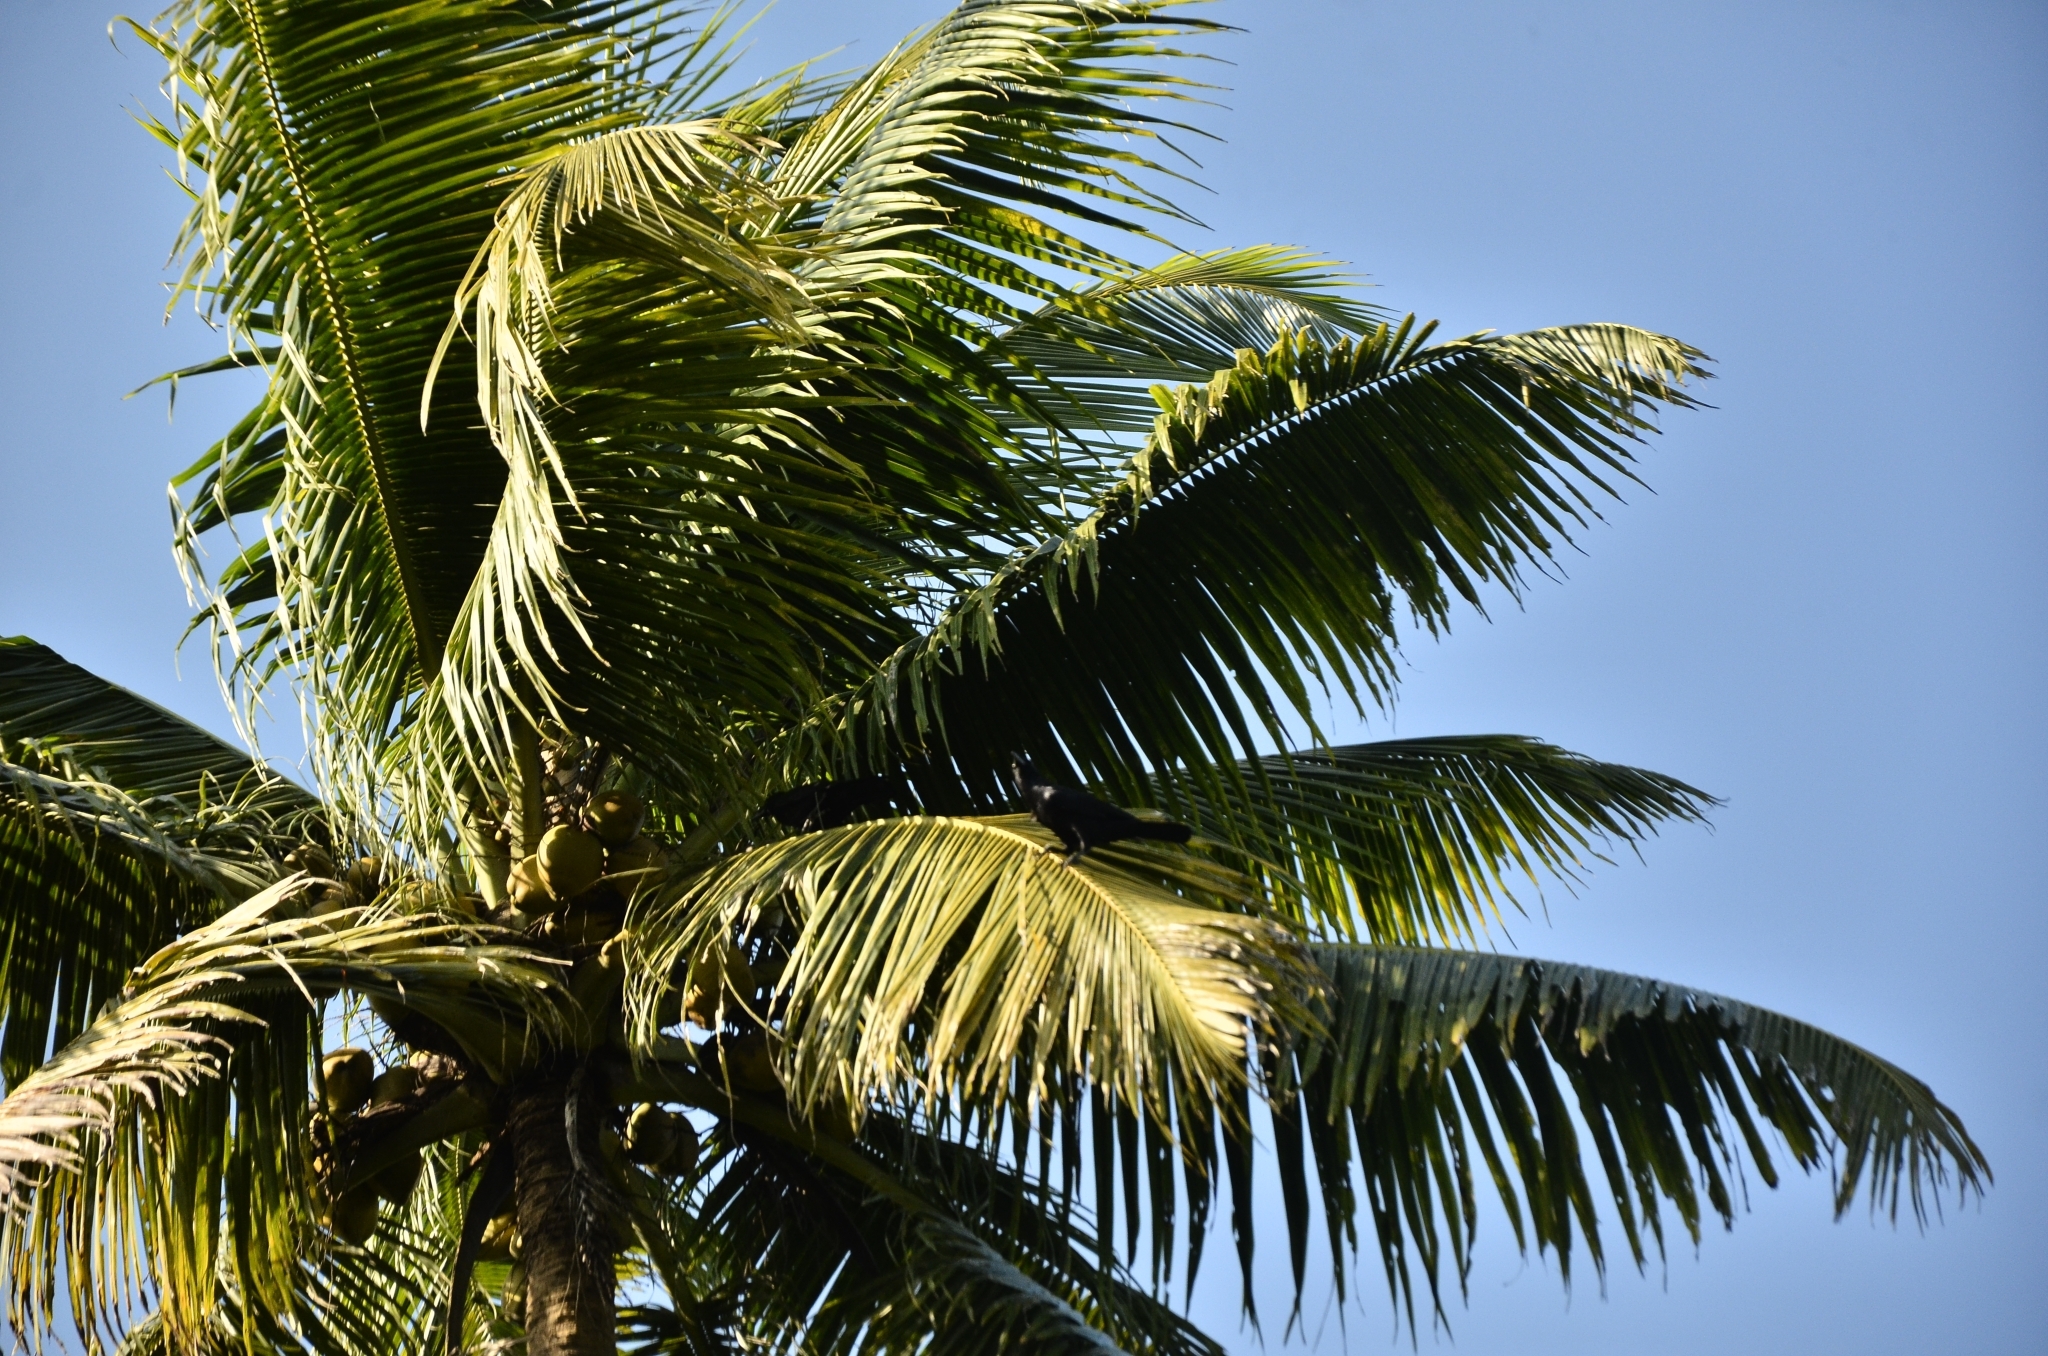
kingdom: Animalia
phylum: Chordata
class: Aves
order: Passeriformes
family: Corvidae
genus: Corvus
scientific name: Corvus macrorhynchos
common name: Large-billed crow
